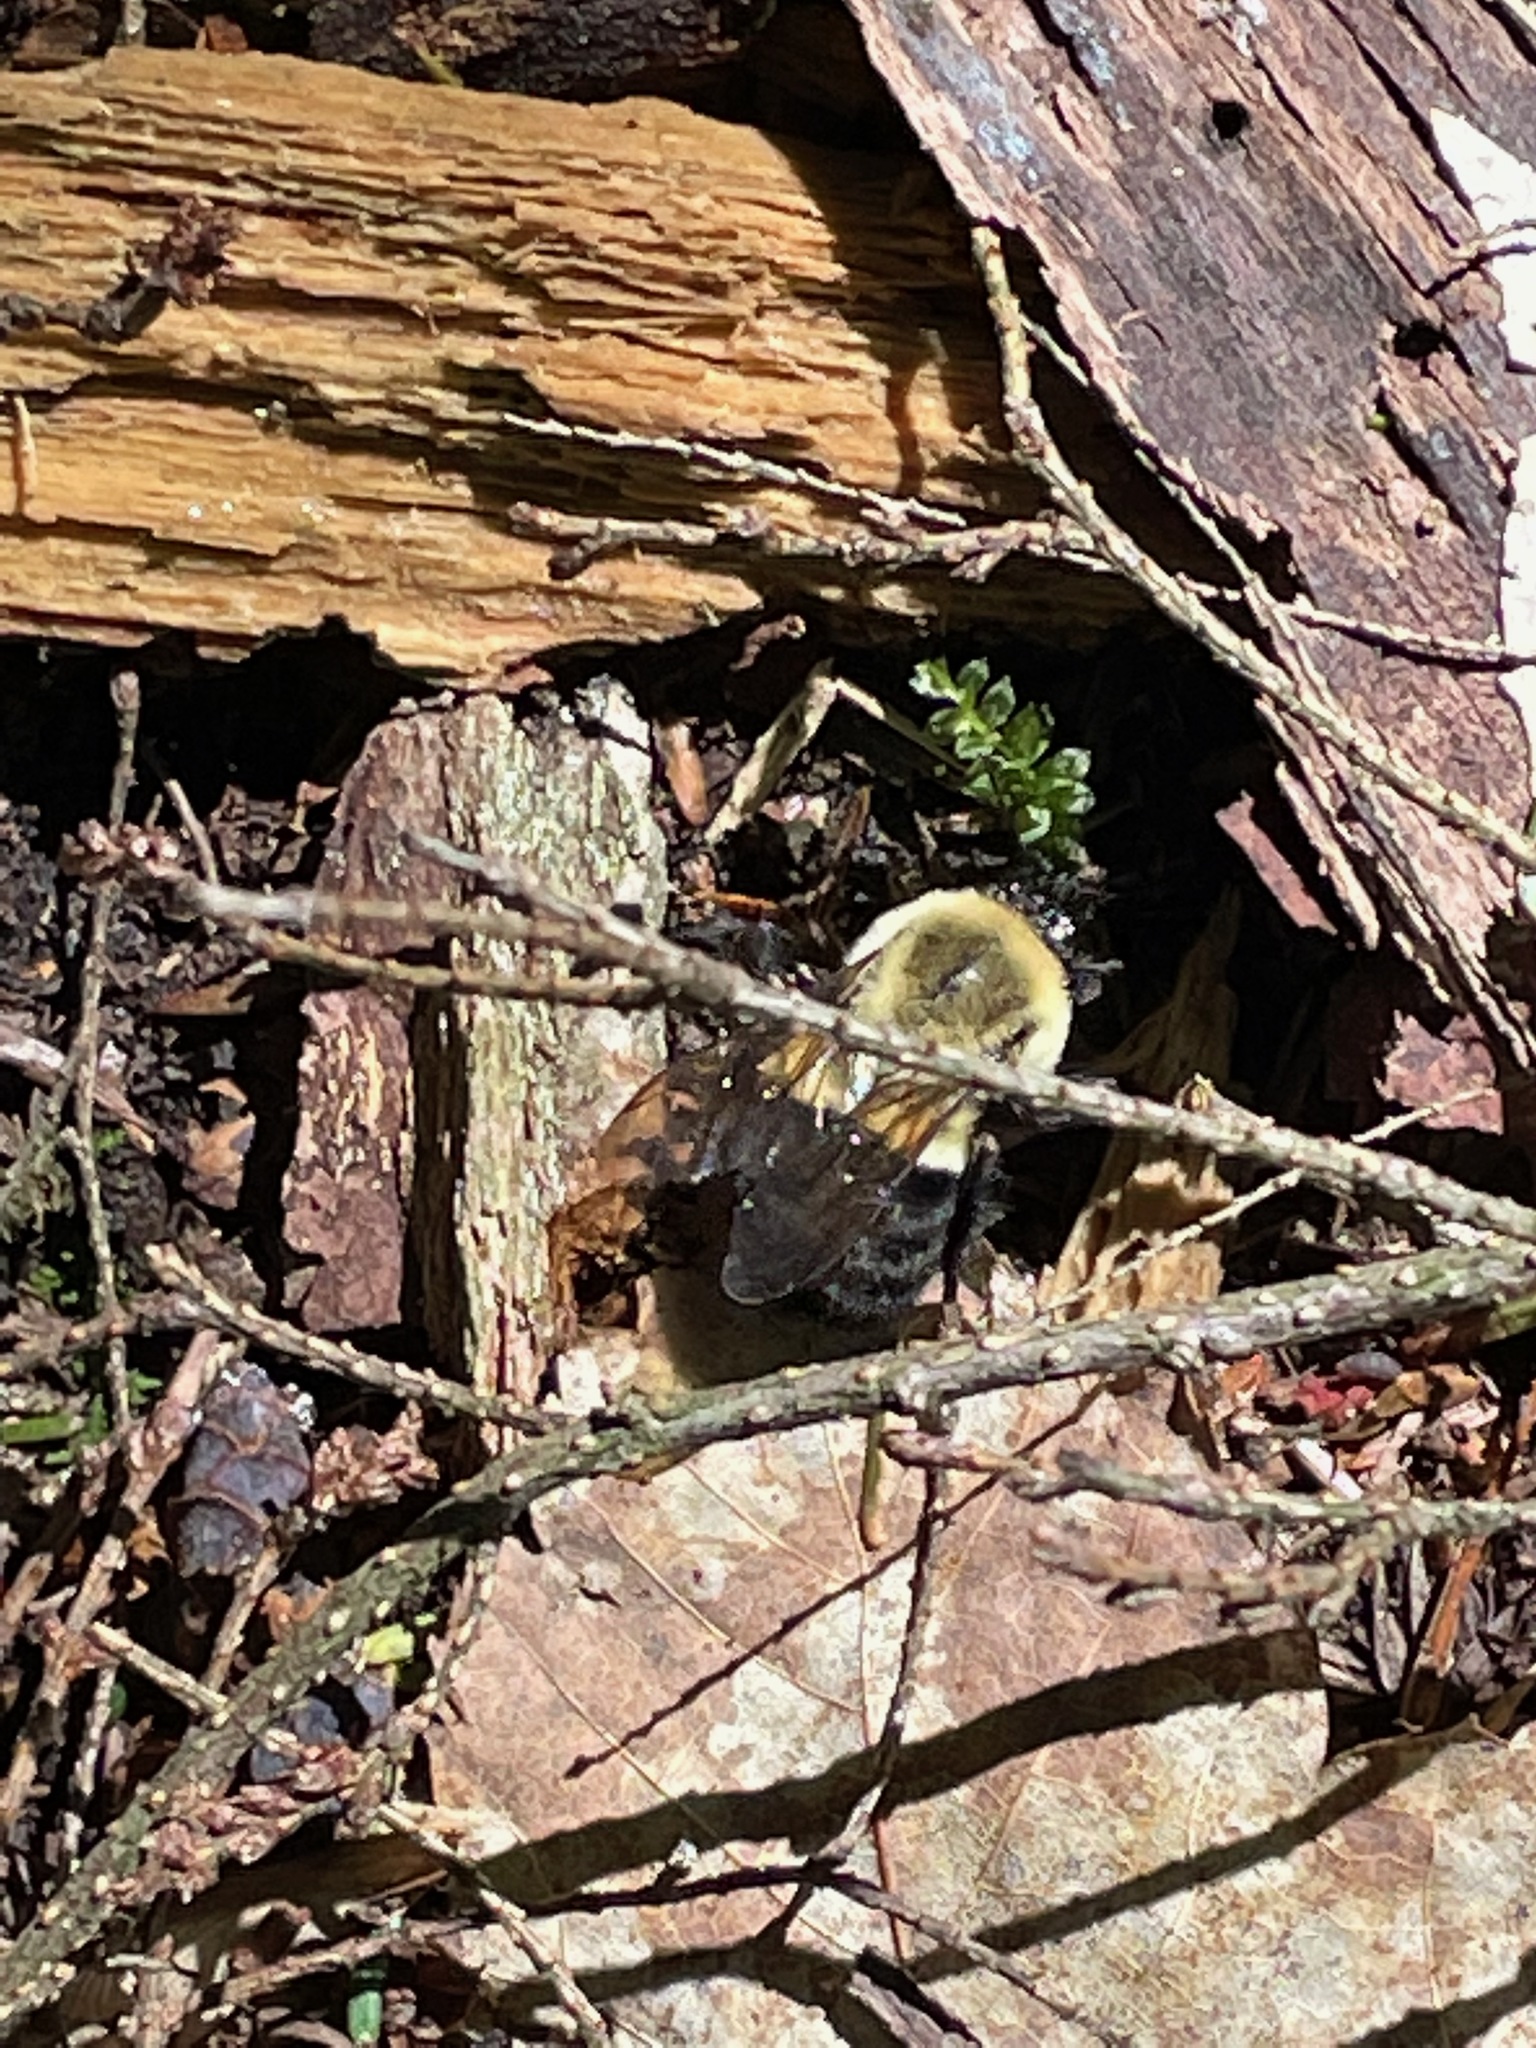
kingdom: Animalia
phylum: Arthropoda
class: Insecta
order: Hymenoptera
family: Apidae
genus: Bombus
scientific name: Bombus impatiens
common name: Common eastern bumble bee
